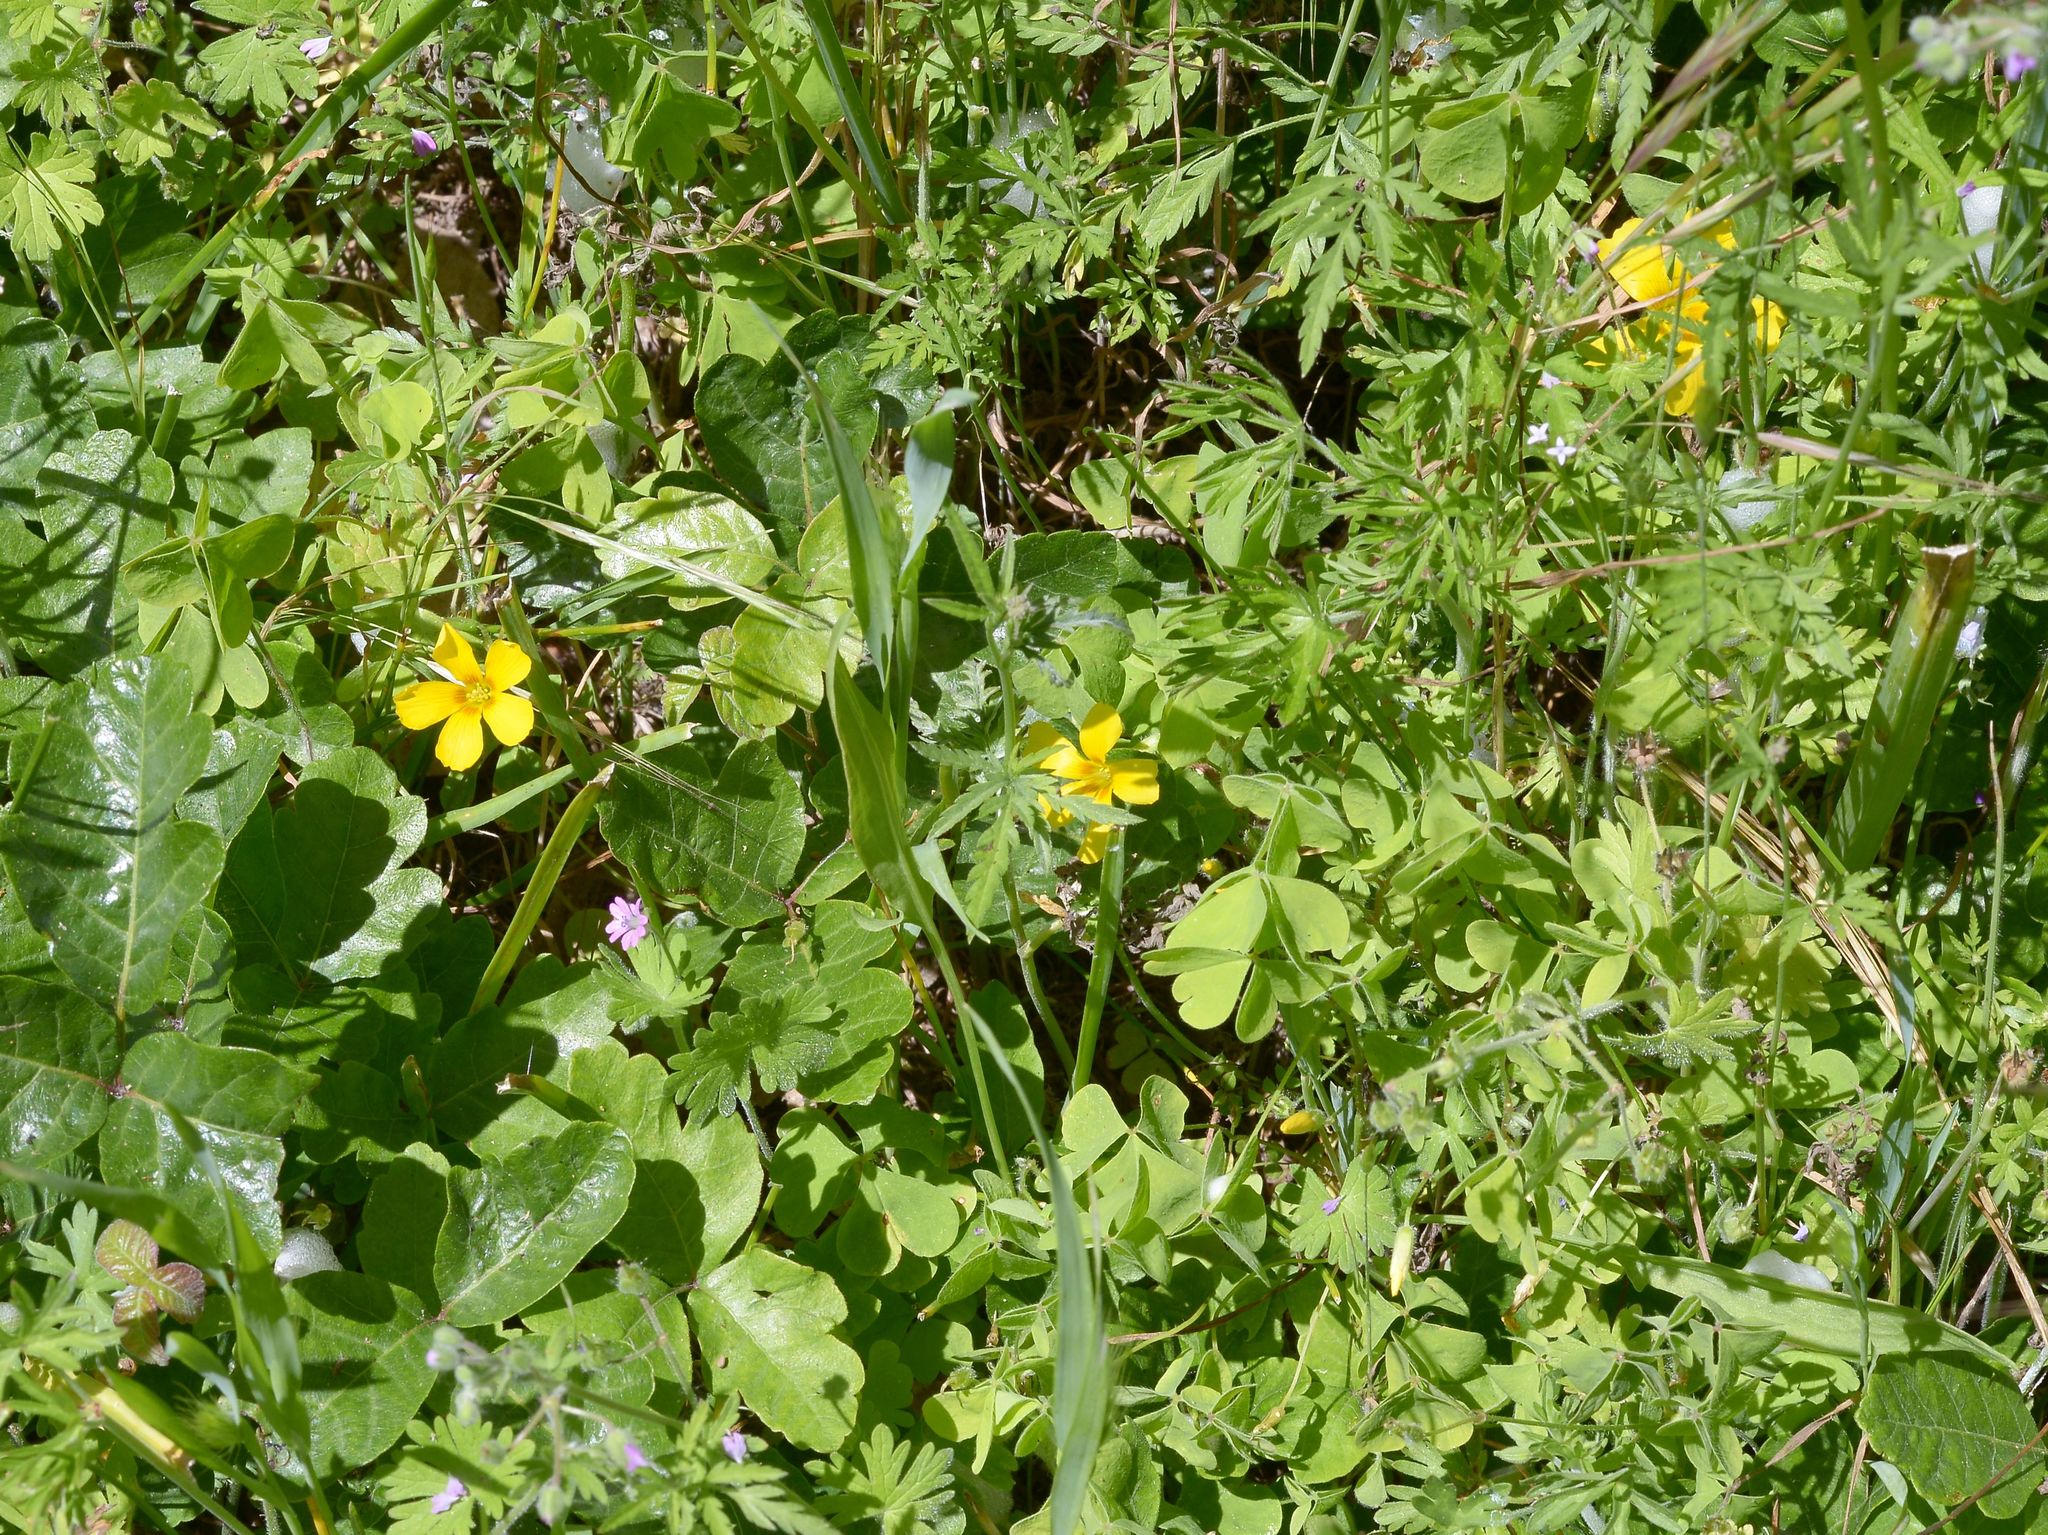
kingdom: Plantae
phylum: Tracheophyta
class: Magnoliopsida
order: Oxalidales
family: Oxalidaceae
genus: Oxalis
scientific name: Oxalis suksdorfii
